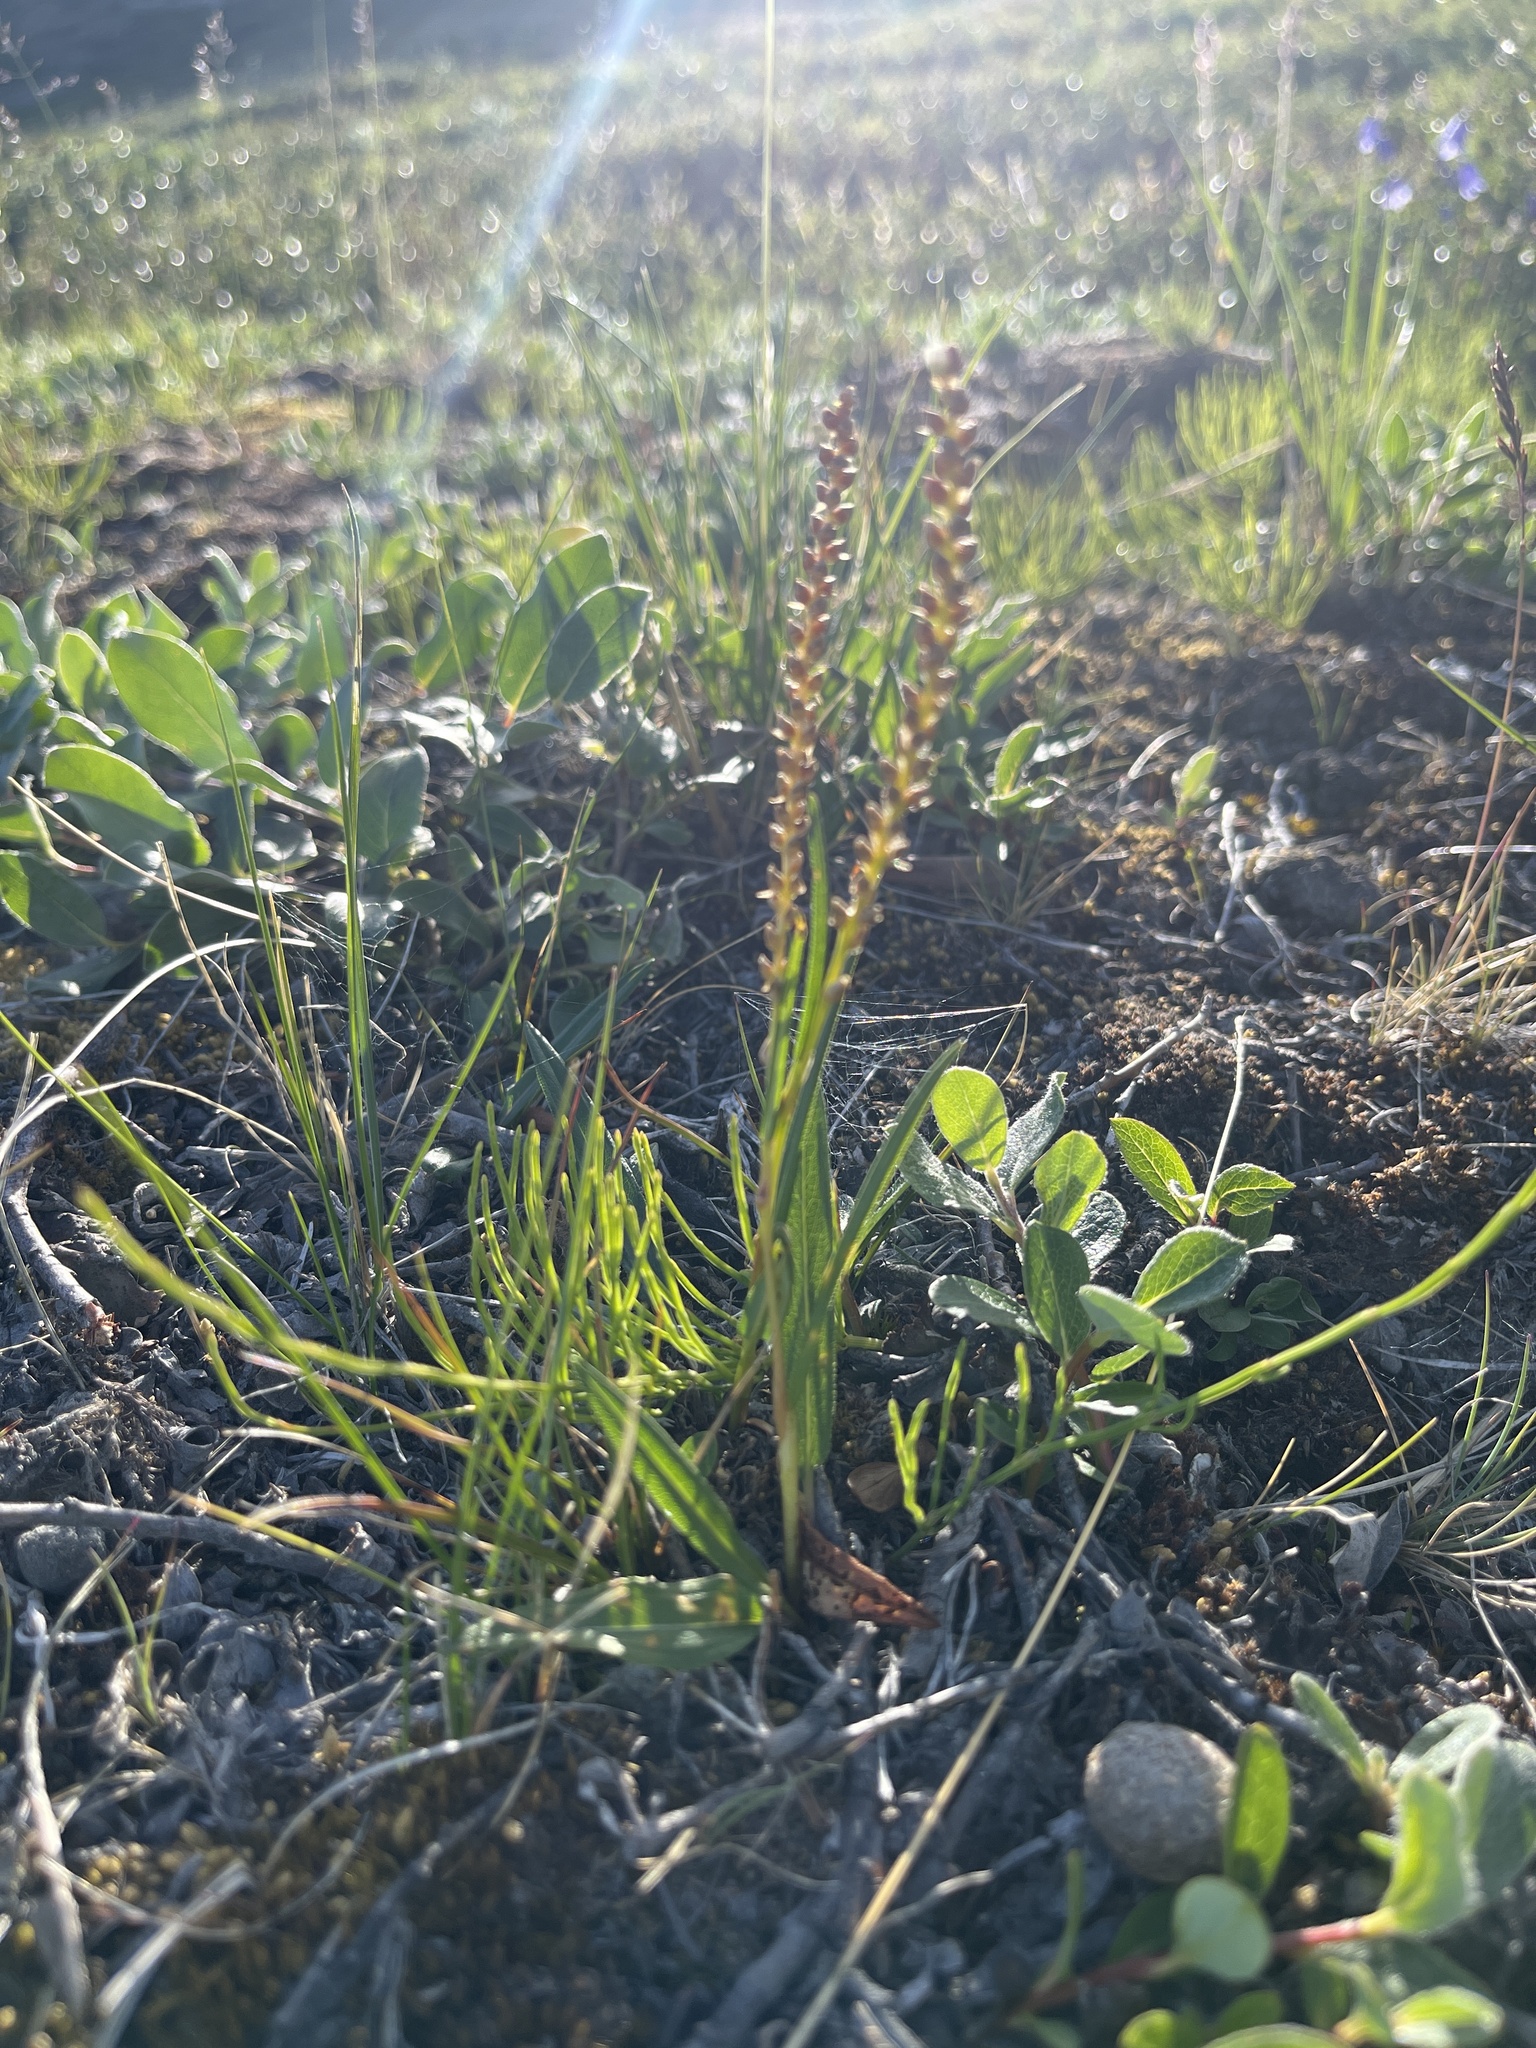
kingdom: Plantae
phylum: Tracheophyta
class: Magnoliopsida
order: Caryophyllales
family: Polygonaceae
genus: Bistorta
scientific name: Bistorta vivipara
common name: Alpine bistort
